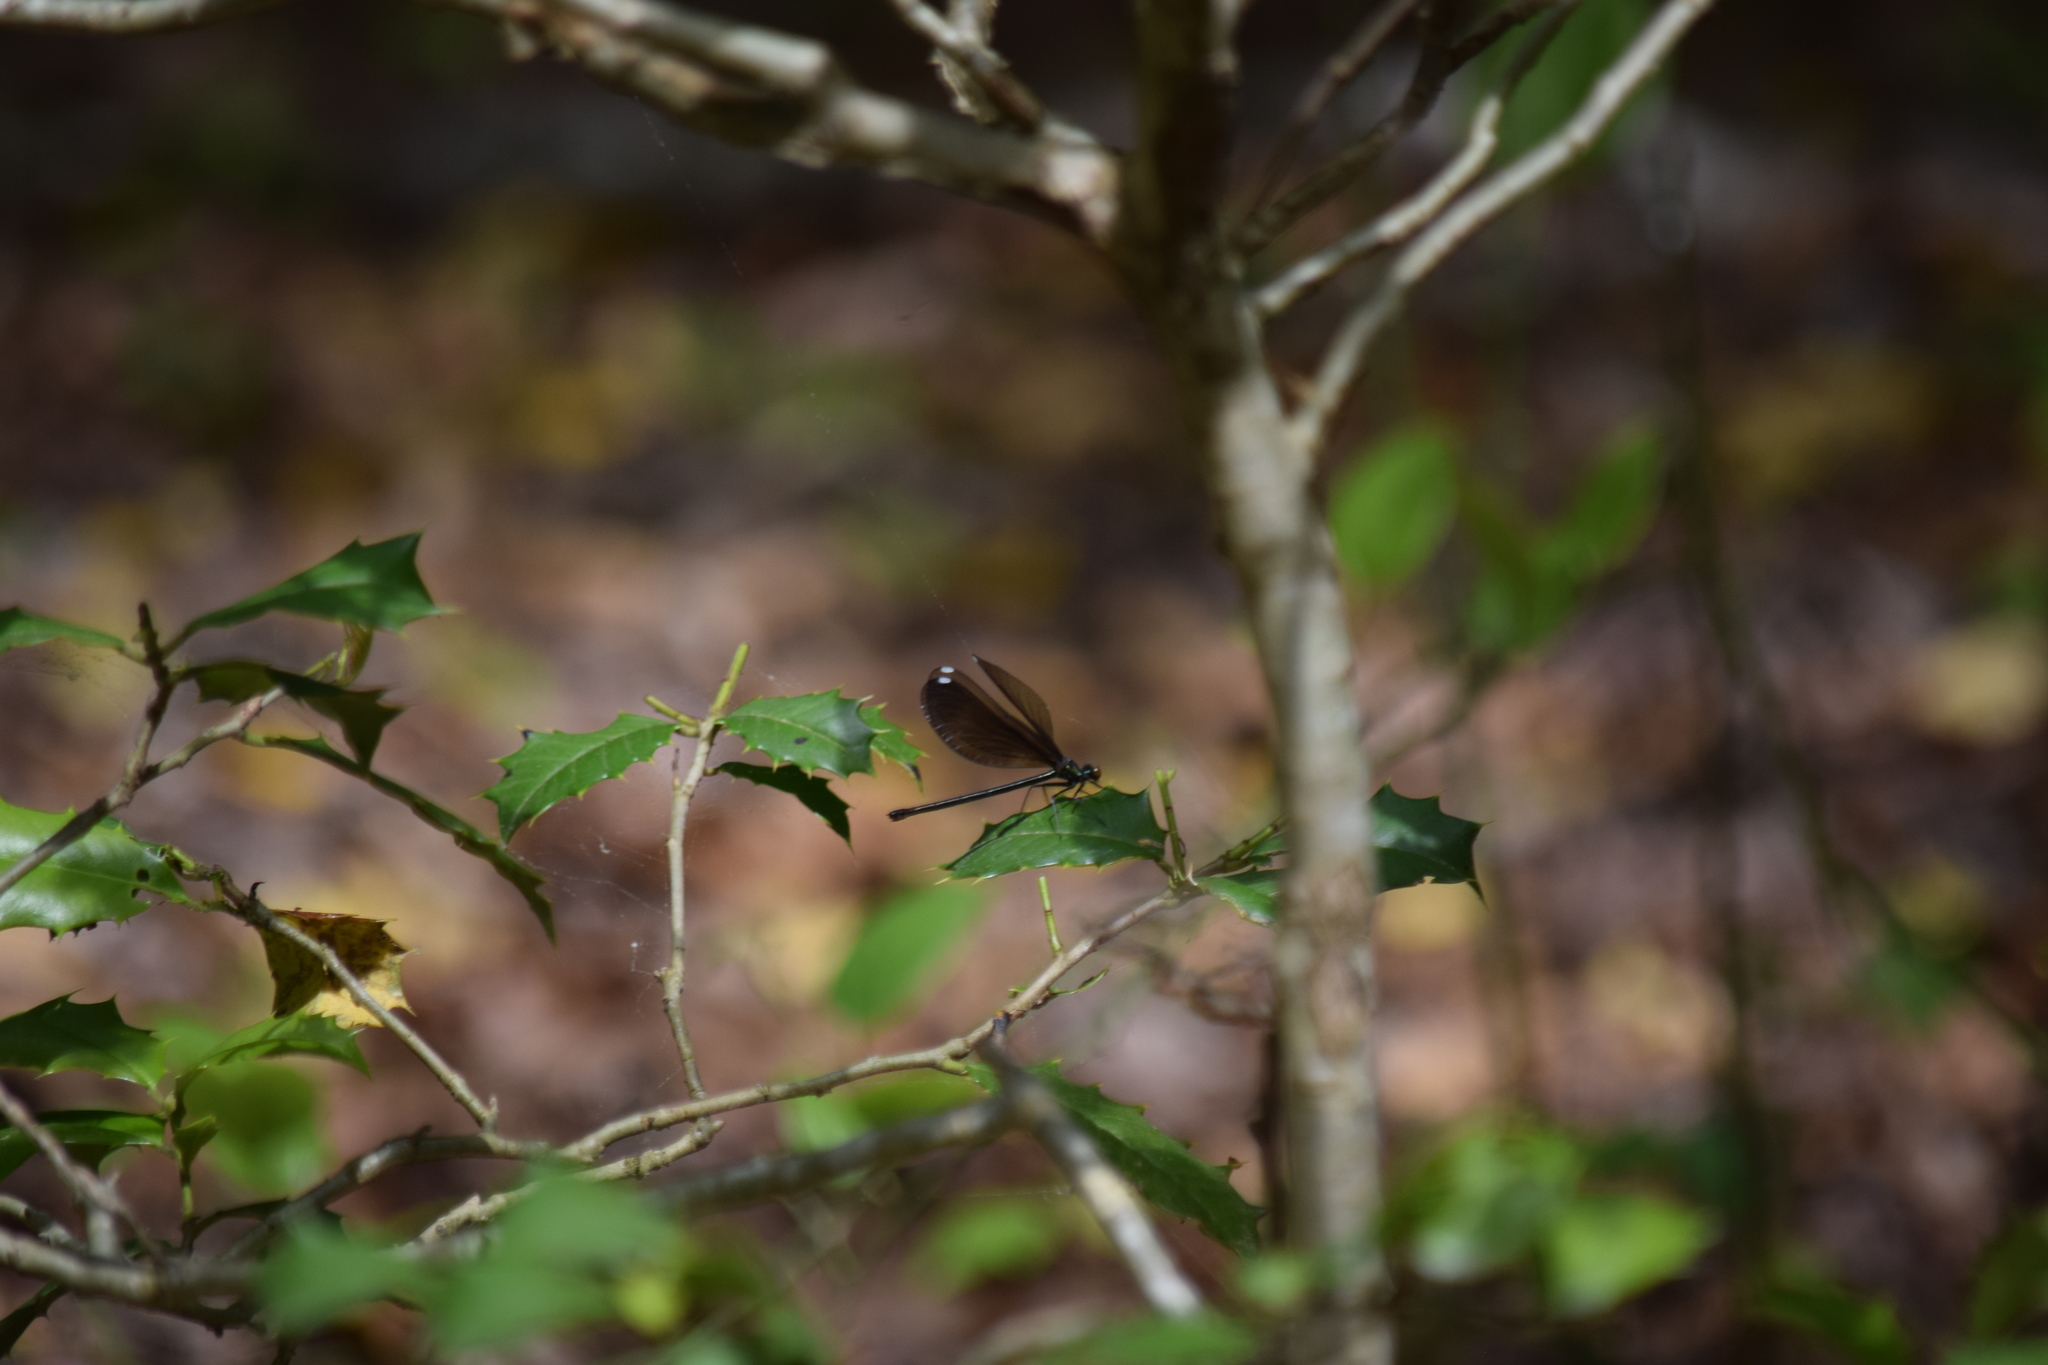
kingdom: Animalia
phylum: Arthropoda
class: Insecta
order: Odonata
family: Calopterygidae
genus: Calopteryx
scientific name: Calopteryx maculata
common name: Ebony jewelwing
